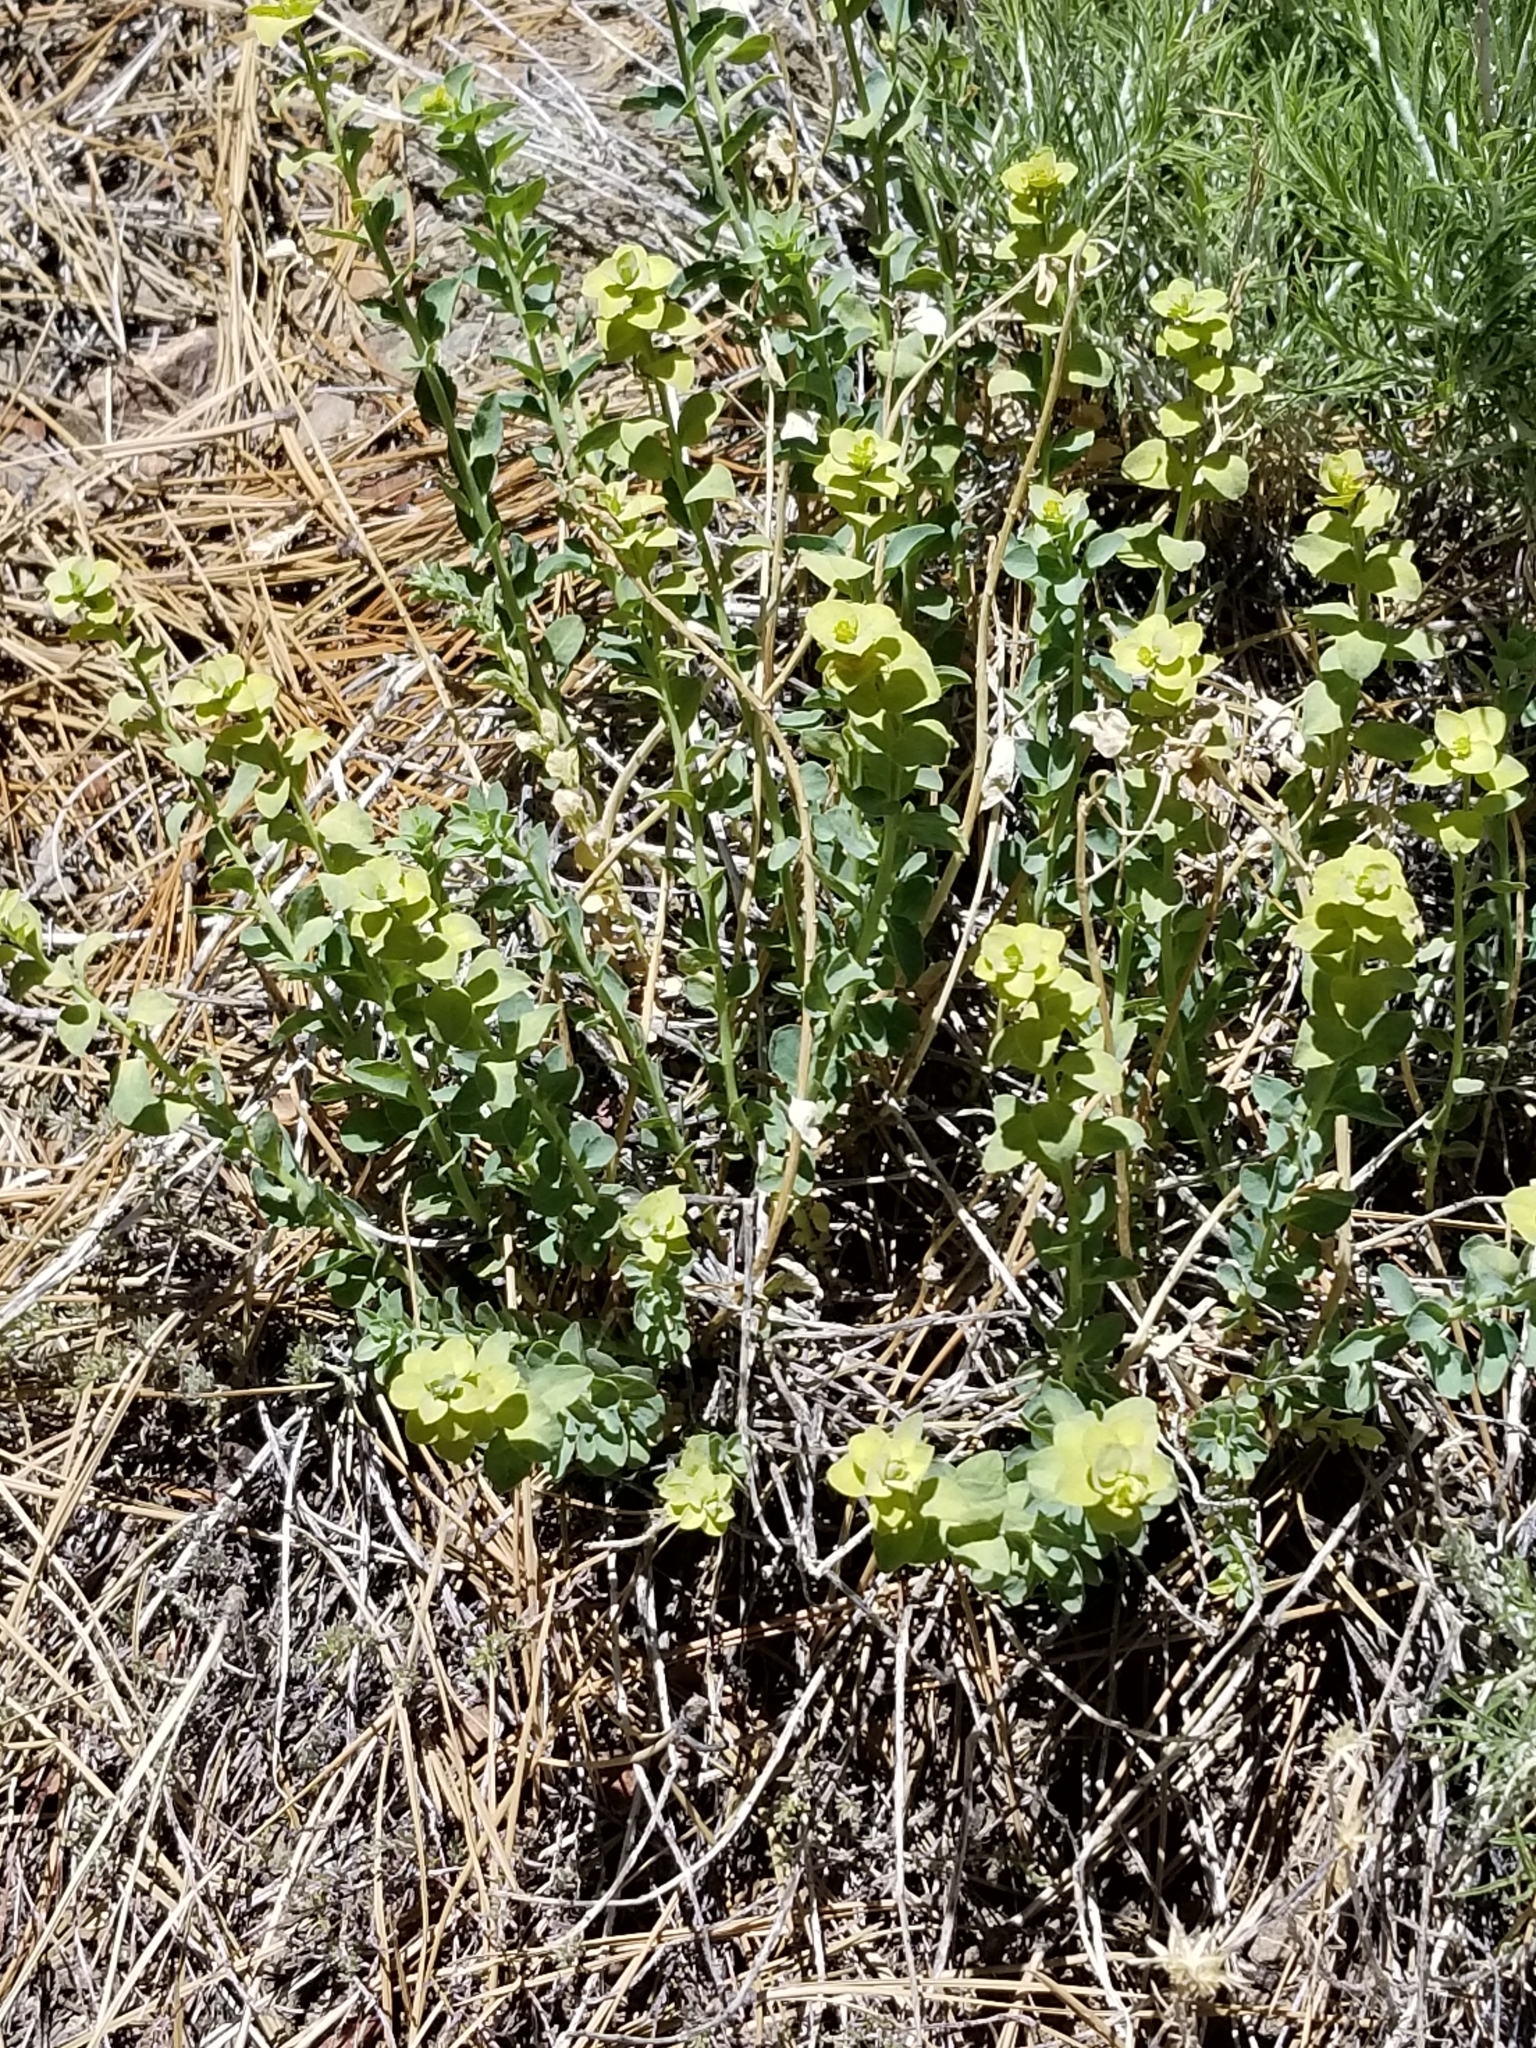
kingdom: Plantae
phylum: Tracheophyta
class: Magnoliopsida
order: Malpighiales
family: Euphorbiaceae
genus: Euphorbia
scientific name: Euphorbia lurida
